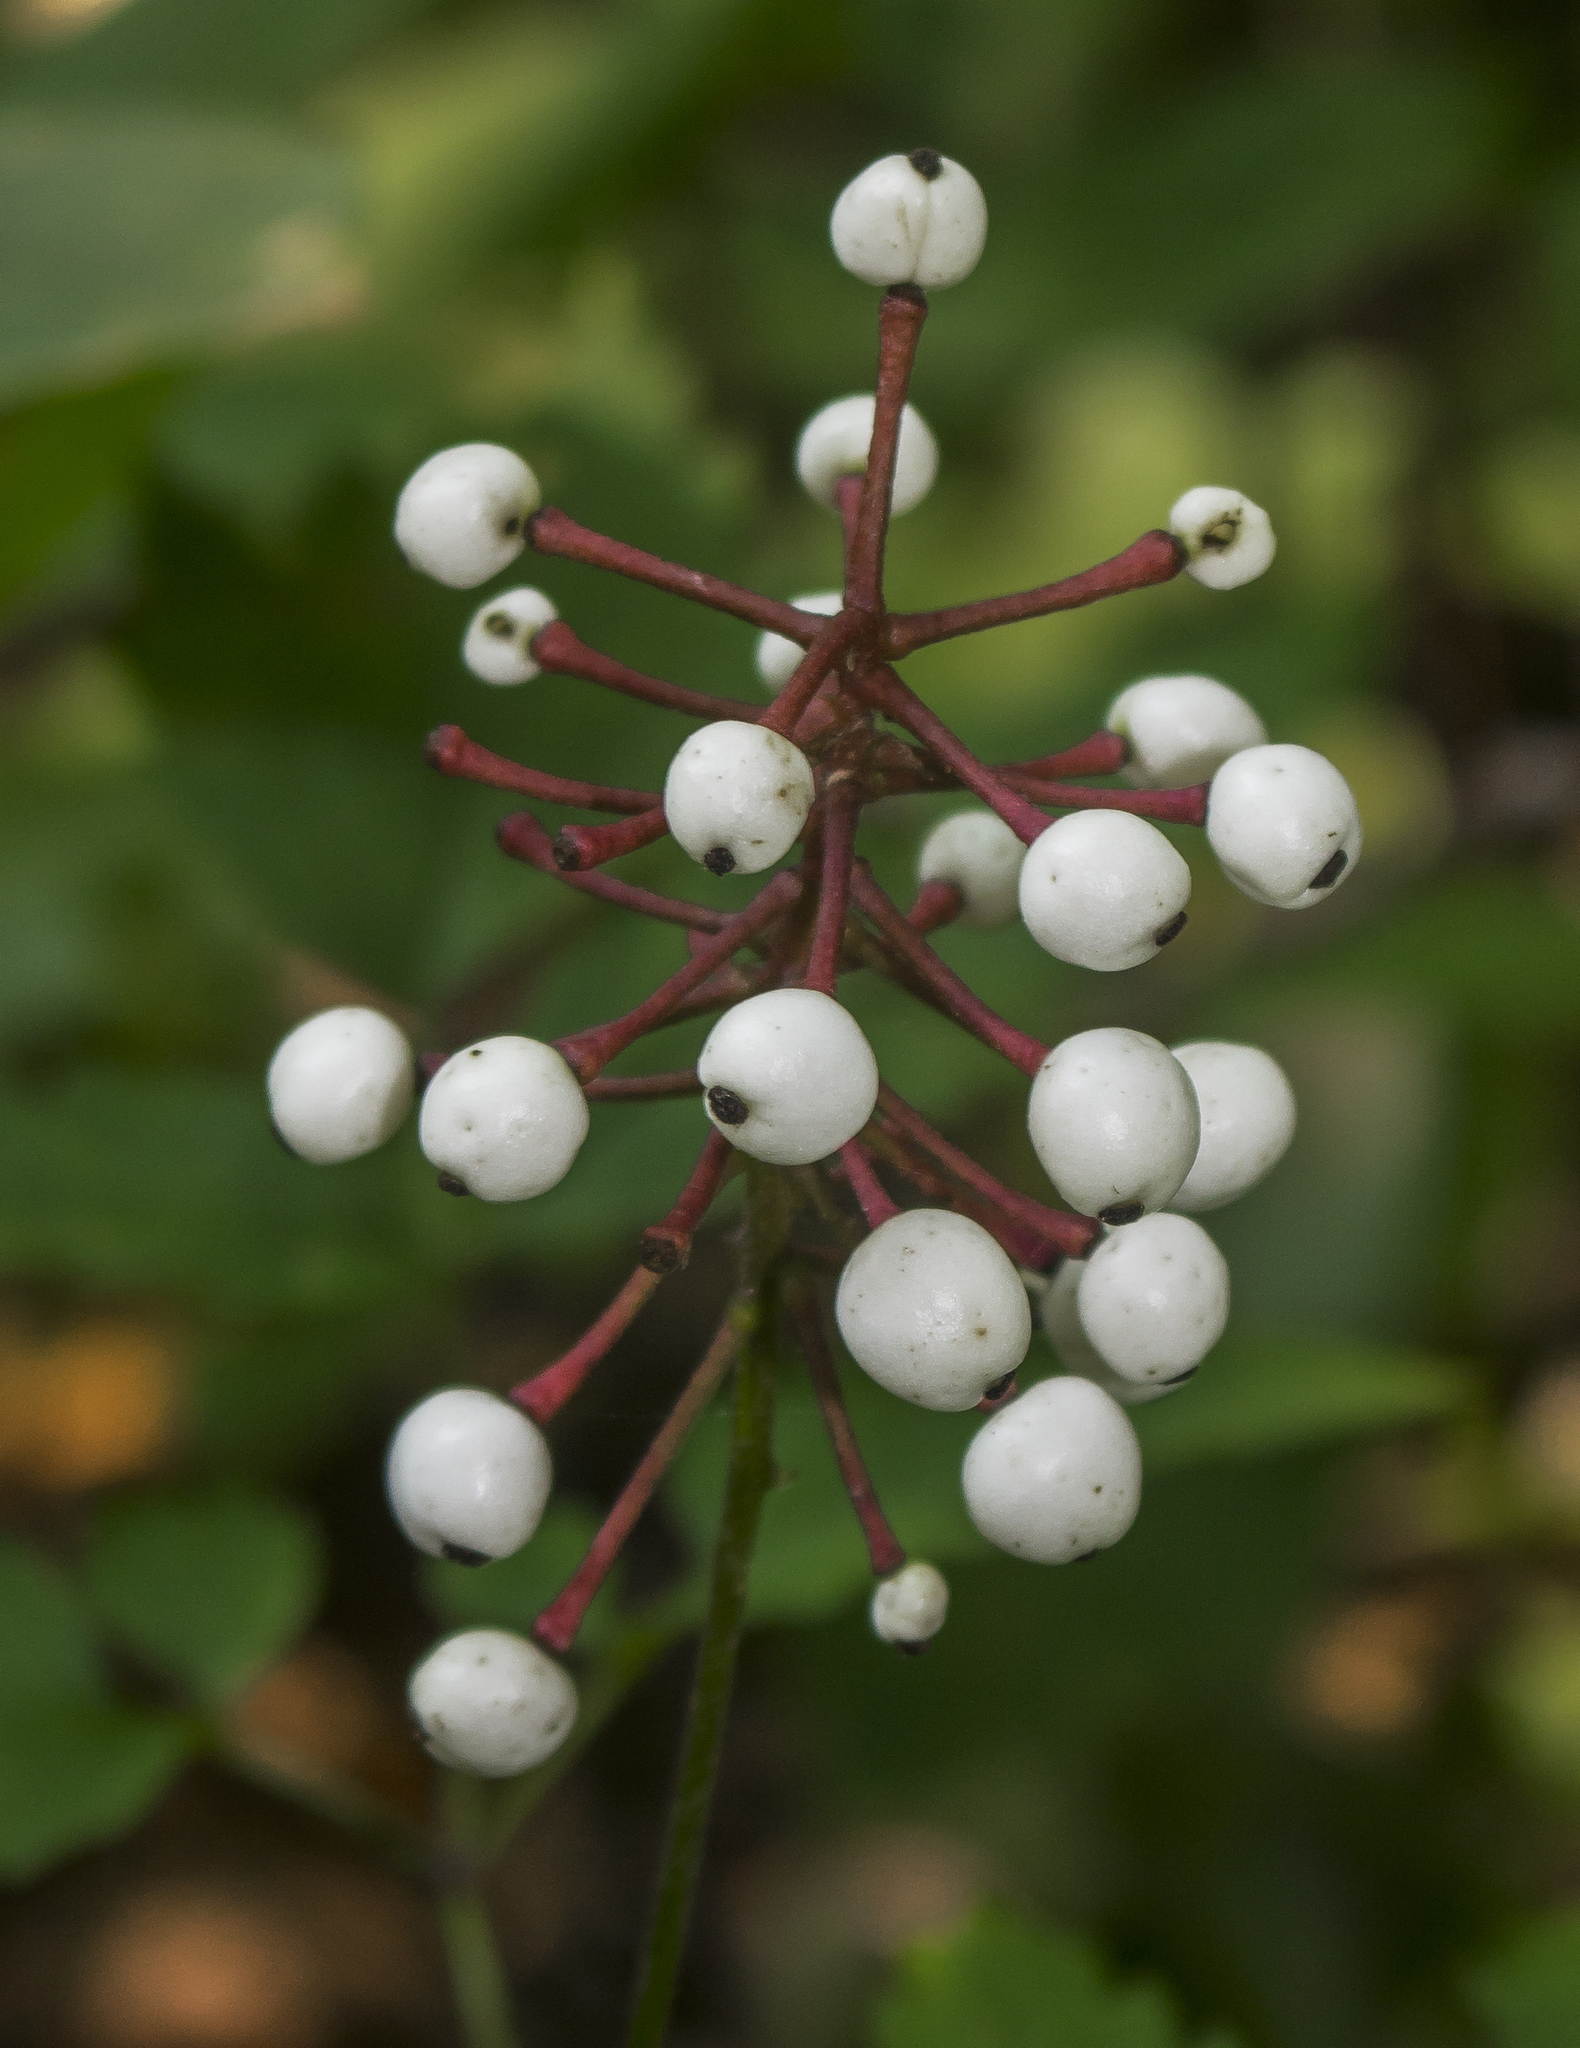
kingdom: Plantae
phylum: Tracheophyta
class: Magnoliopsida
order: Ranunculales
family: Ranunculaceae
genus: Actaea
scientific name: Actaea pachypoda
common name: Doll's-eyes
